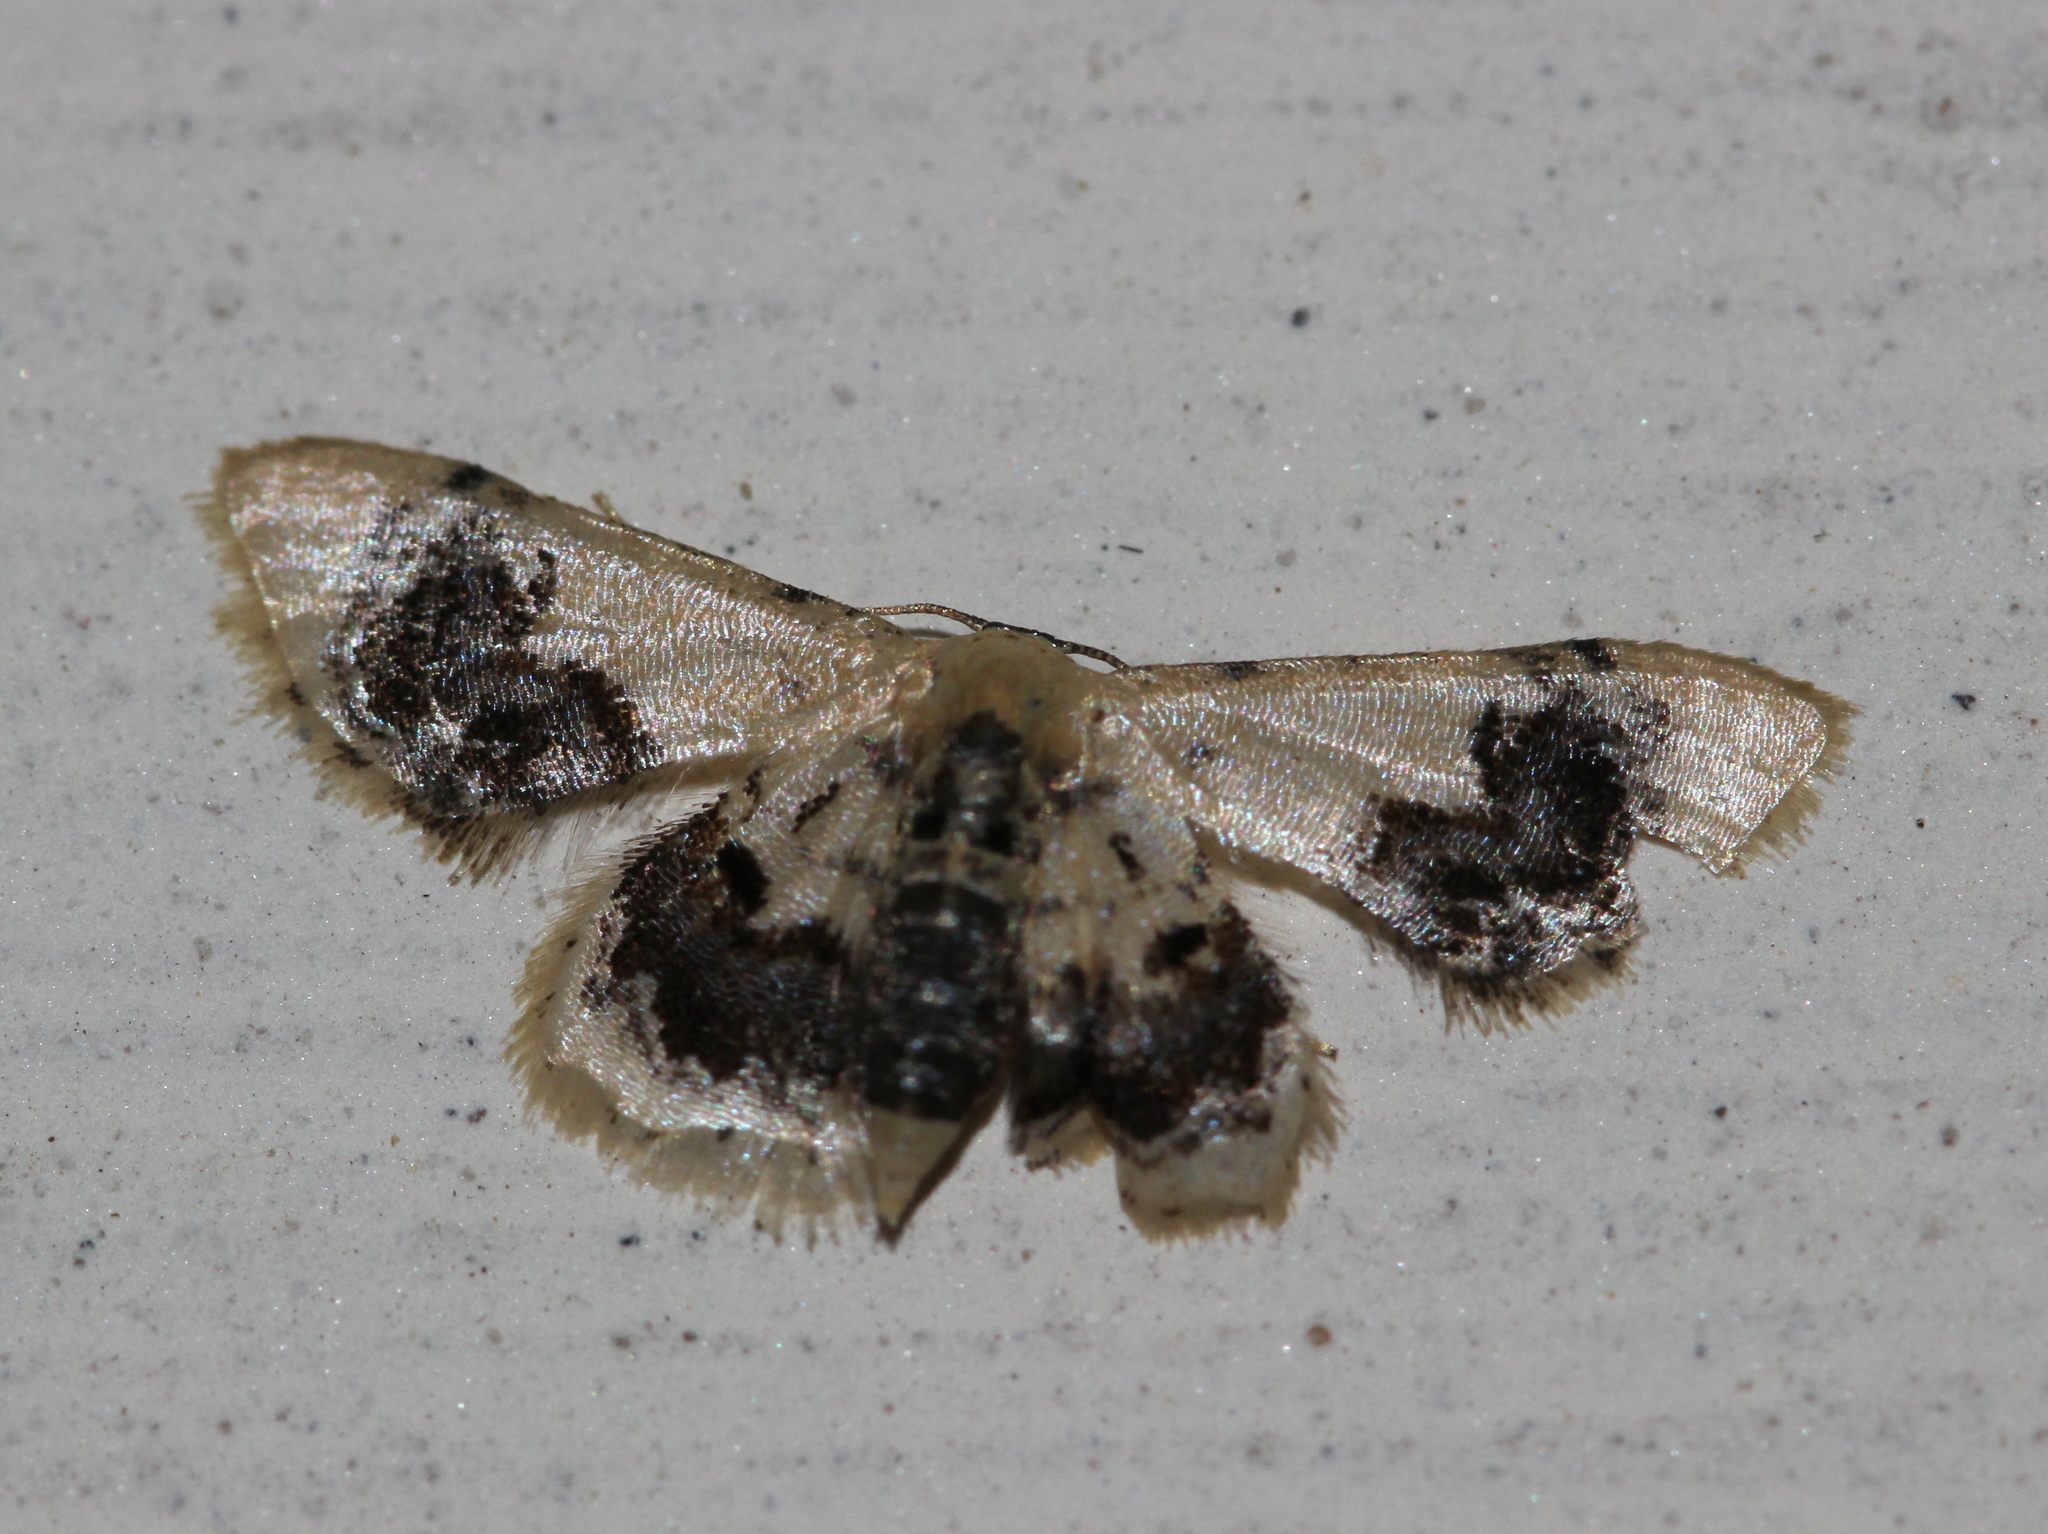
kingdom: Animalia
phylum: Arthropoda
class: Insecta
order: Lepidoptera
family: Geometridae
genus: Idaea
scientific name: Idaea macrospila
